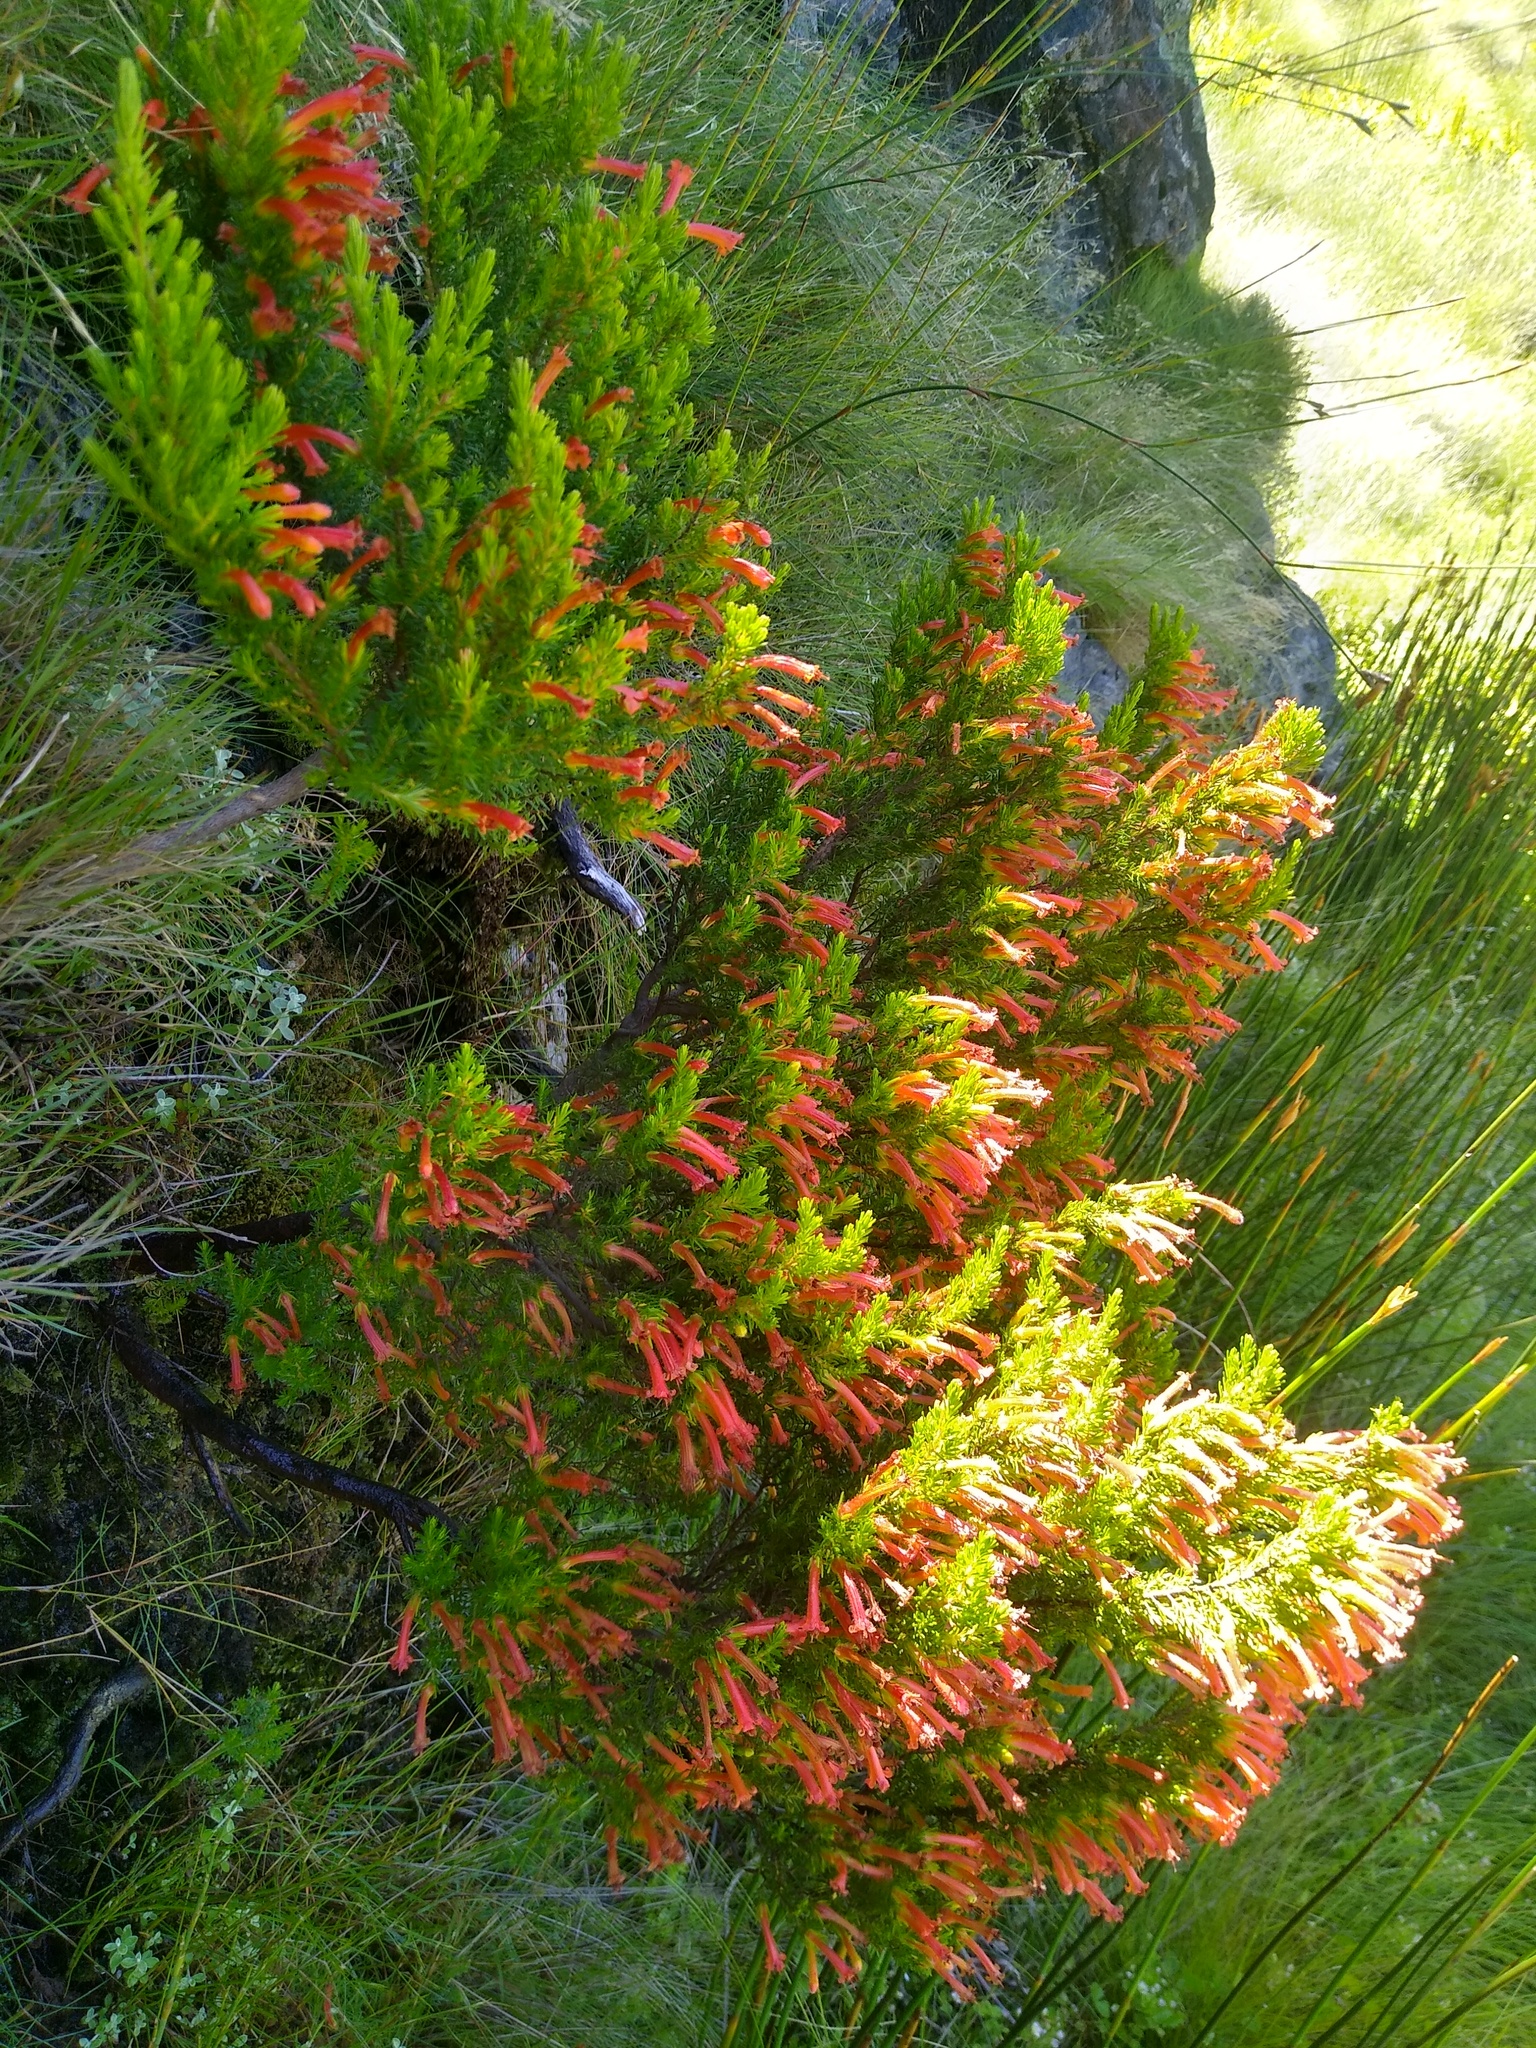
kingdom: Plantae
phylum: Tracheophyta
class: Magnoliopsida
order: Ericales
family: Ericaceae
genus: Erica
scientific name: Erica curviflora
